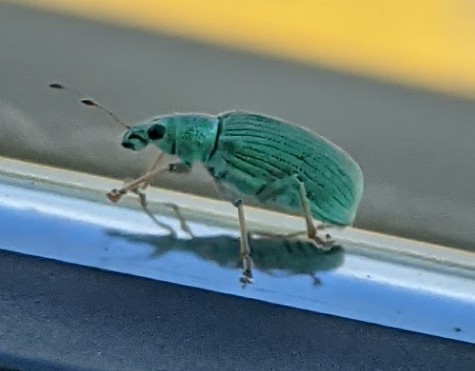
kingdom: Animalia
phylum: Arthropoda
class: Insecta
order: Coleoptera
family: Curculionidae
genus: Polydrusus
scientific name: Polydrusus formosus
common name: Weevil
